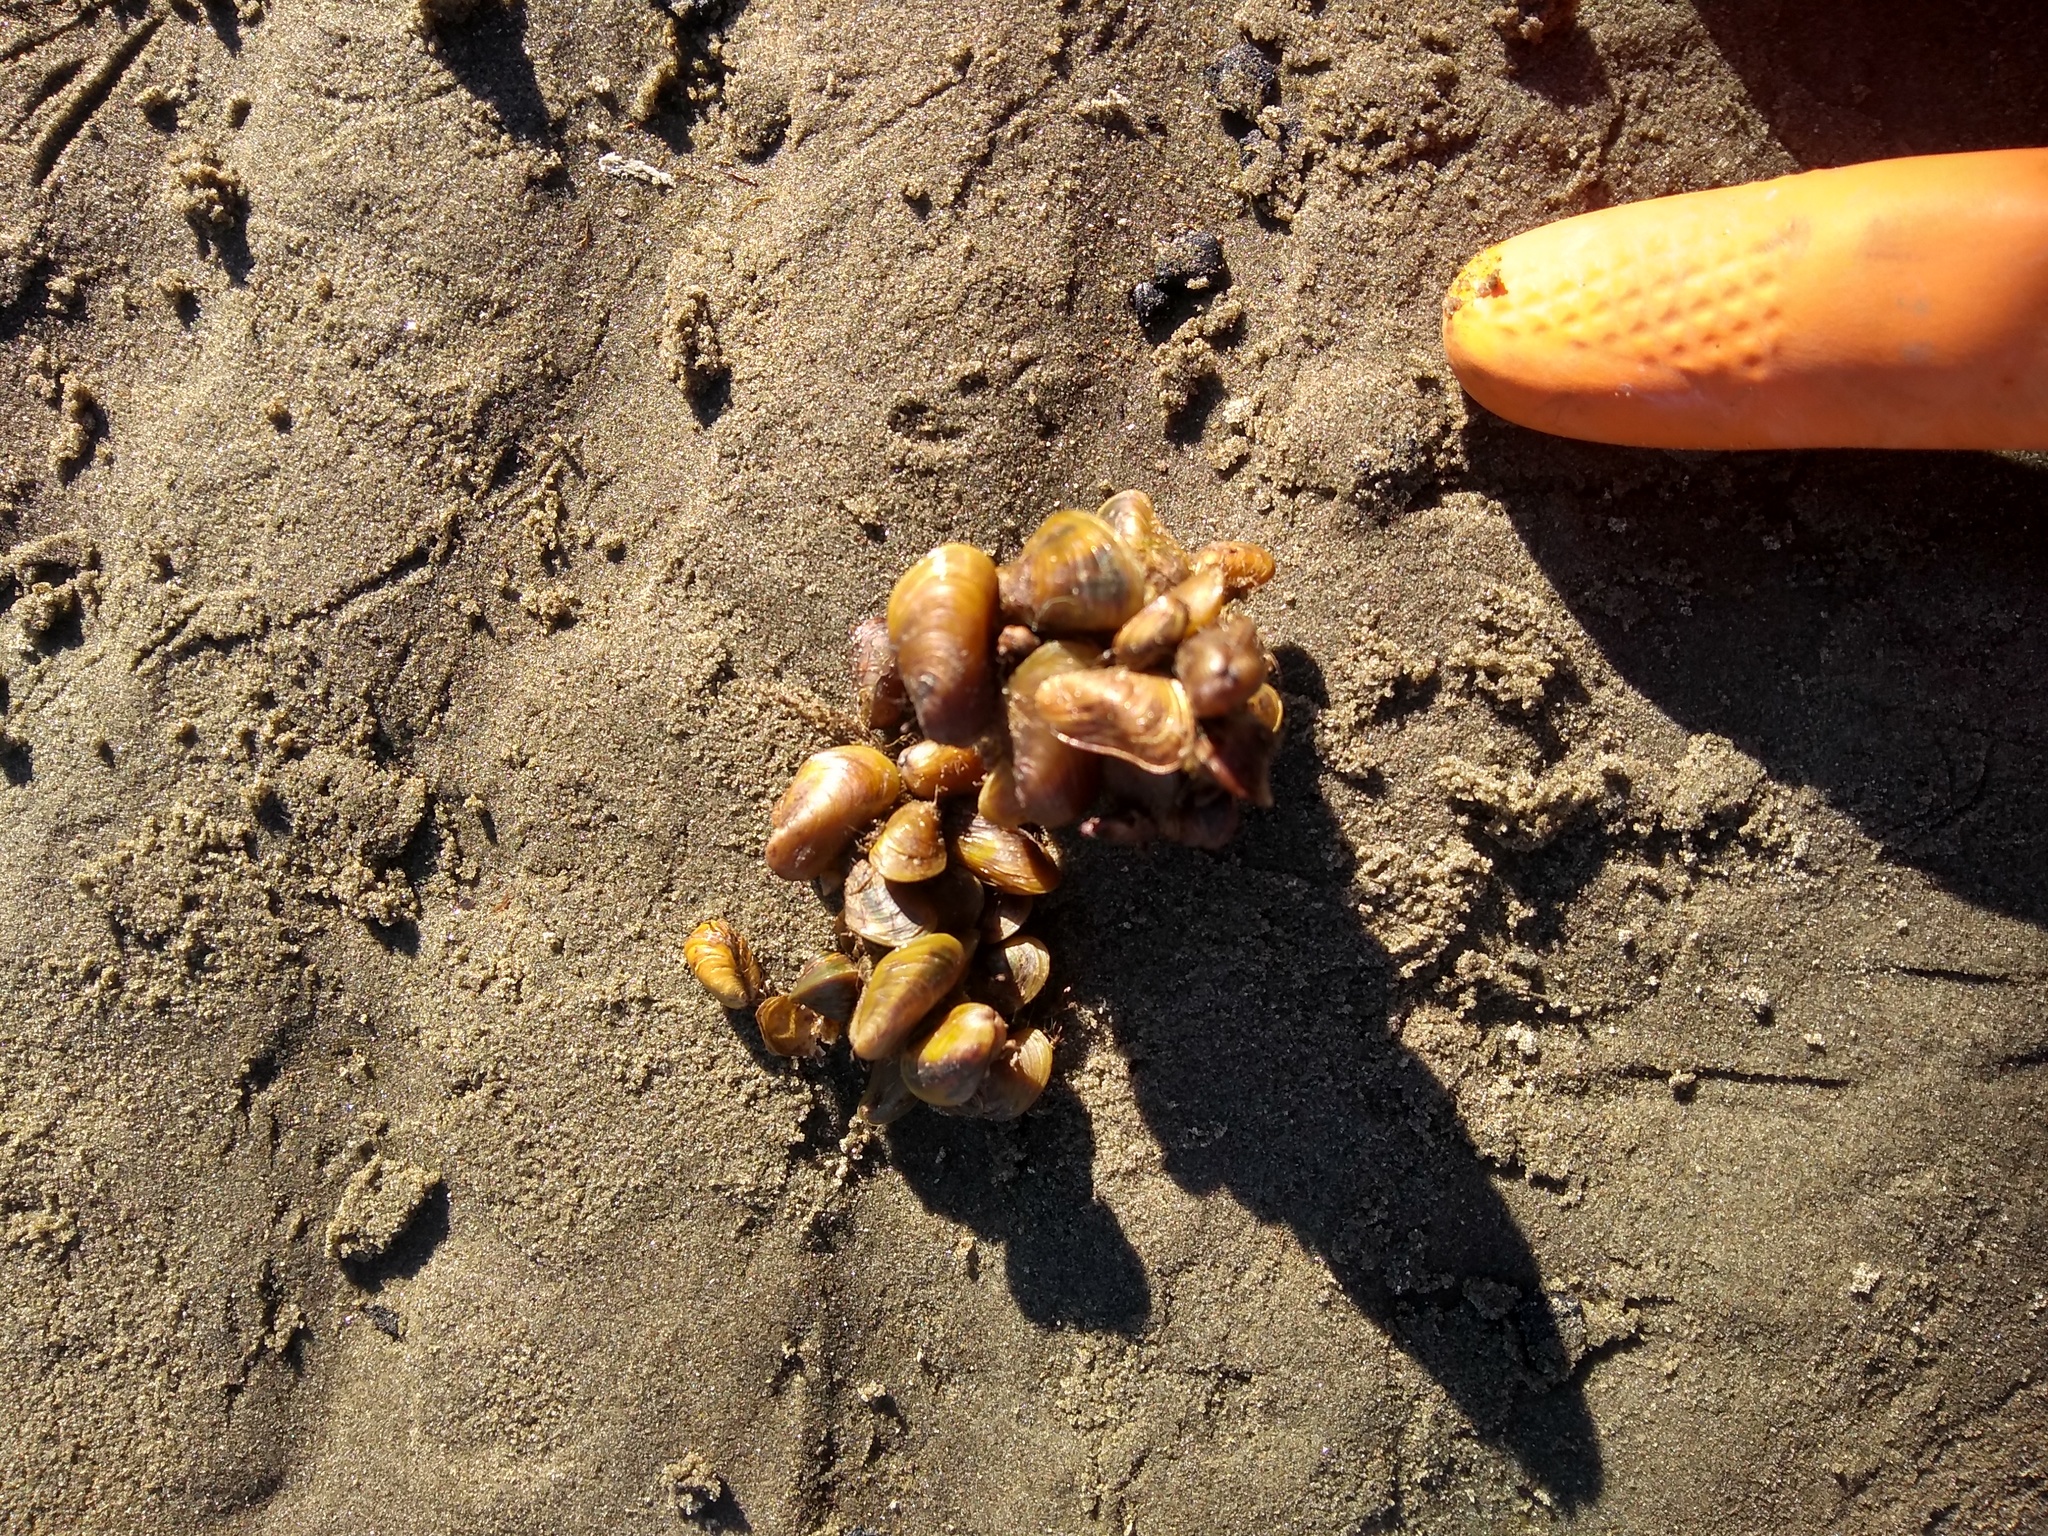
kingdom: Animalia
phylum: Mollusca
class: Bivalvia
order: Mytilida
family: Mytilidae
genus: Limnoperna
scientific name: Limnoperna fortunei
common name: Golden mussel
